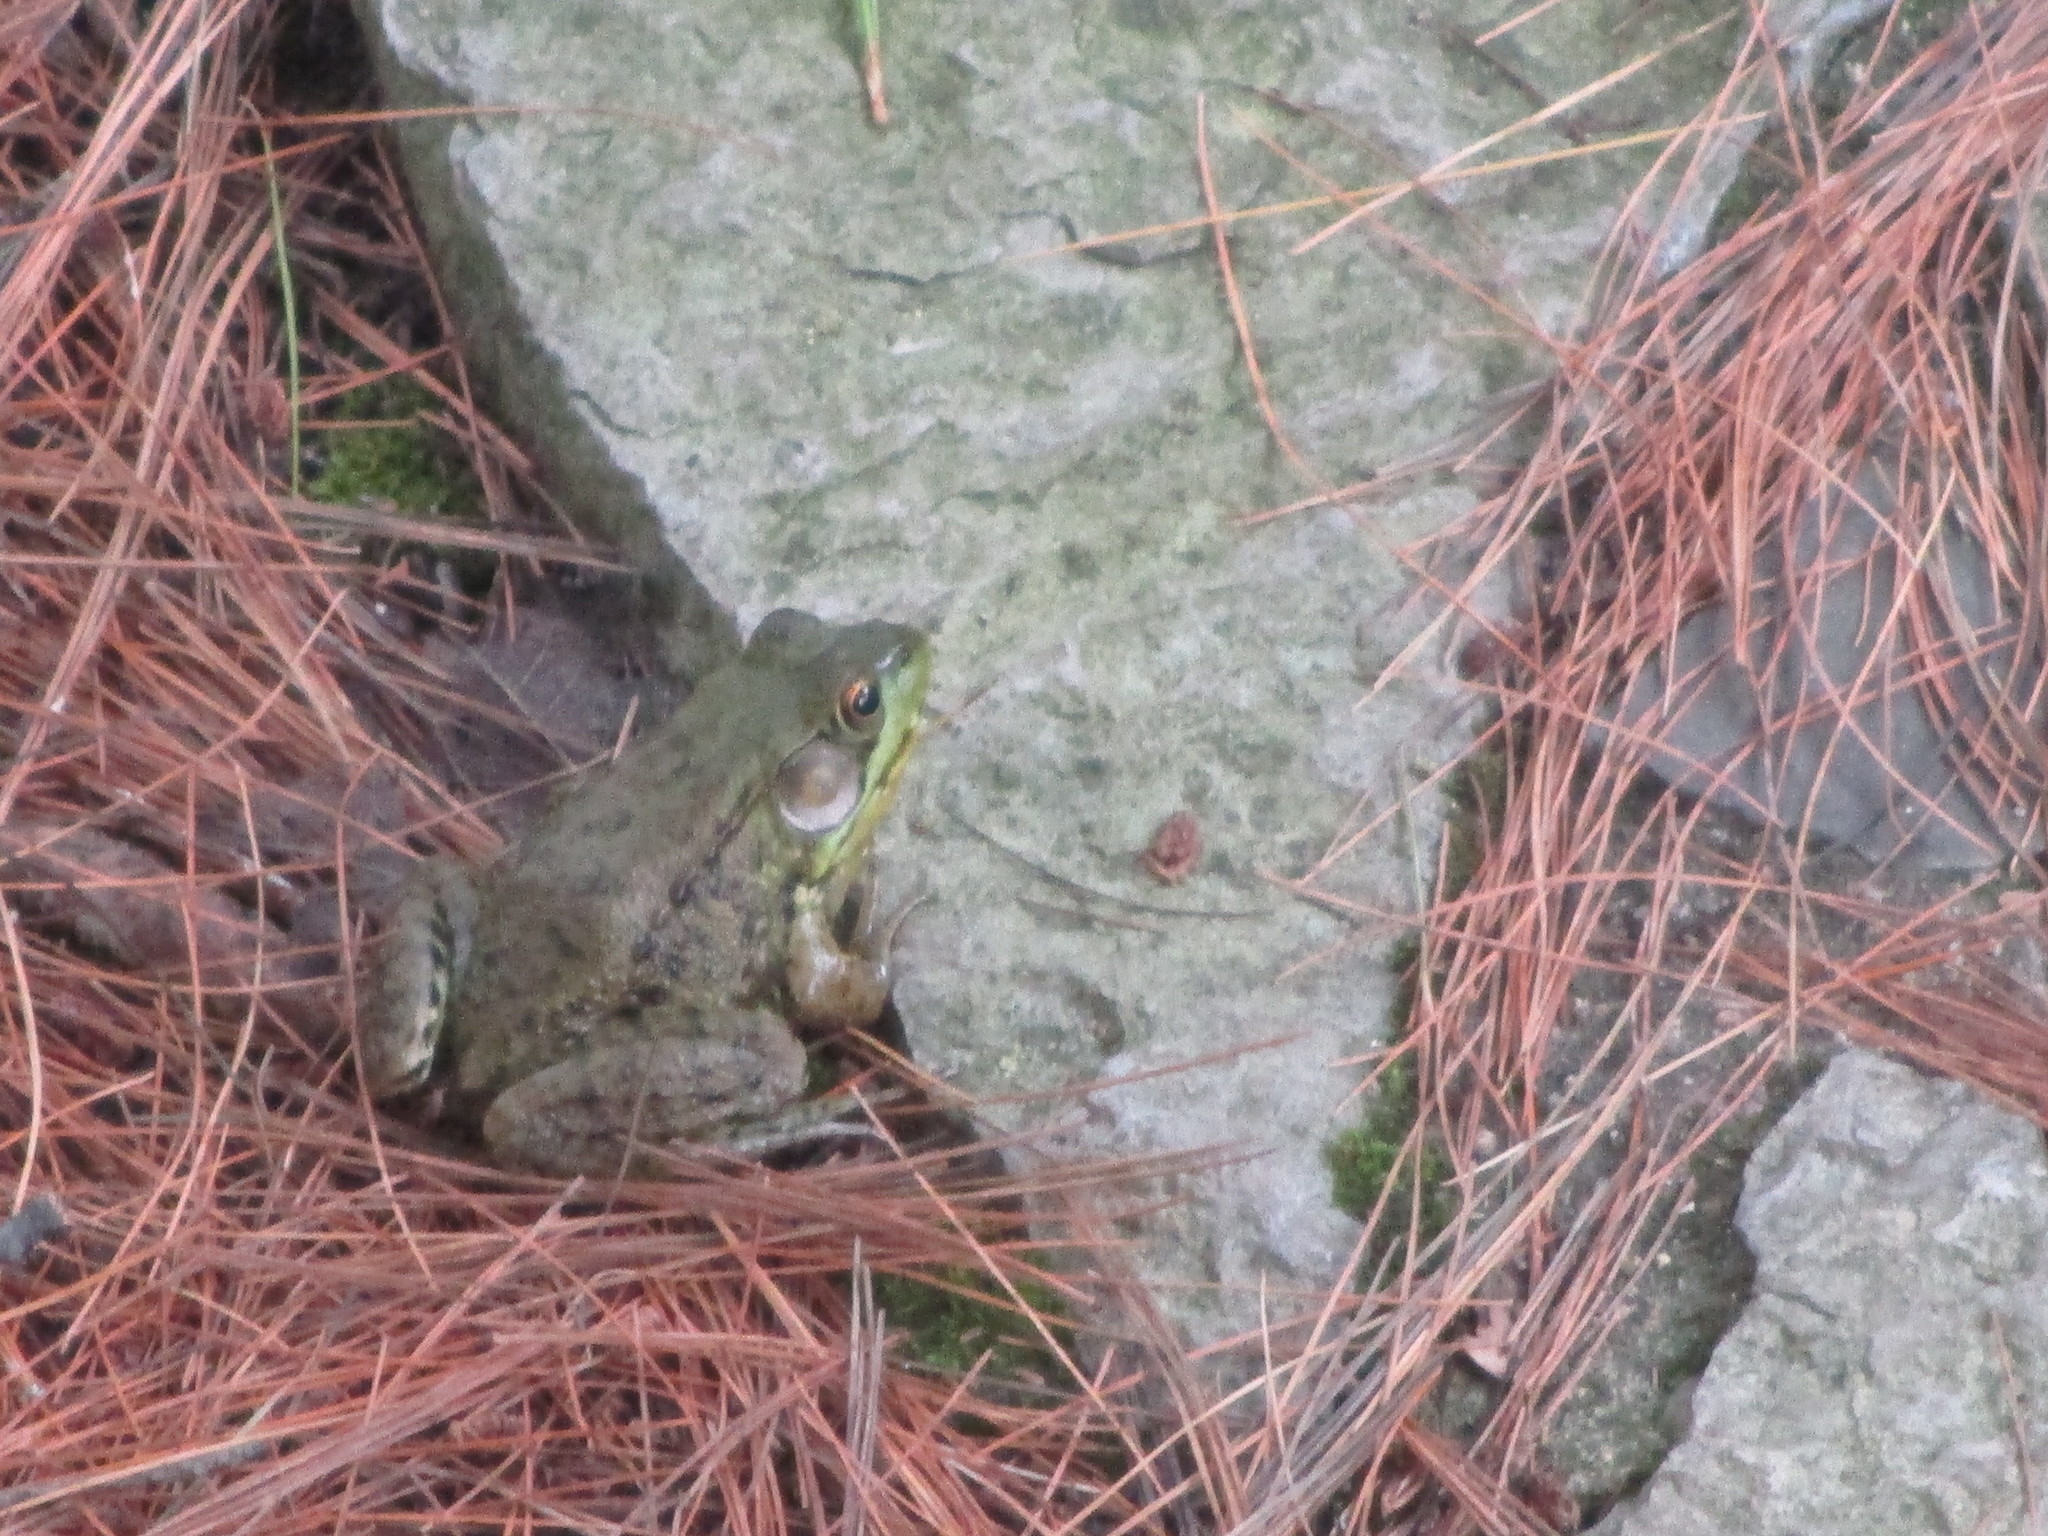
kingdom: Animalia
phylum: Chordata
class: Amphibia
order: Anura
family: Ranidae
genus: Lithobates
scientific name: Lithobates clamitans
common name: Green frog
